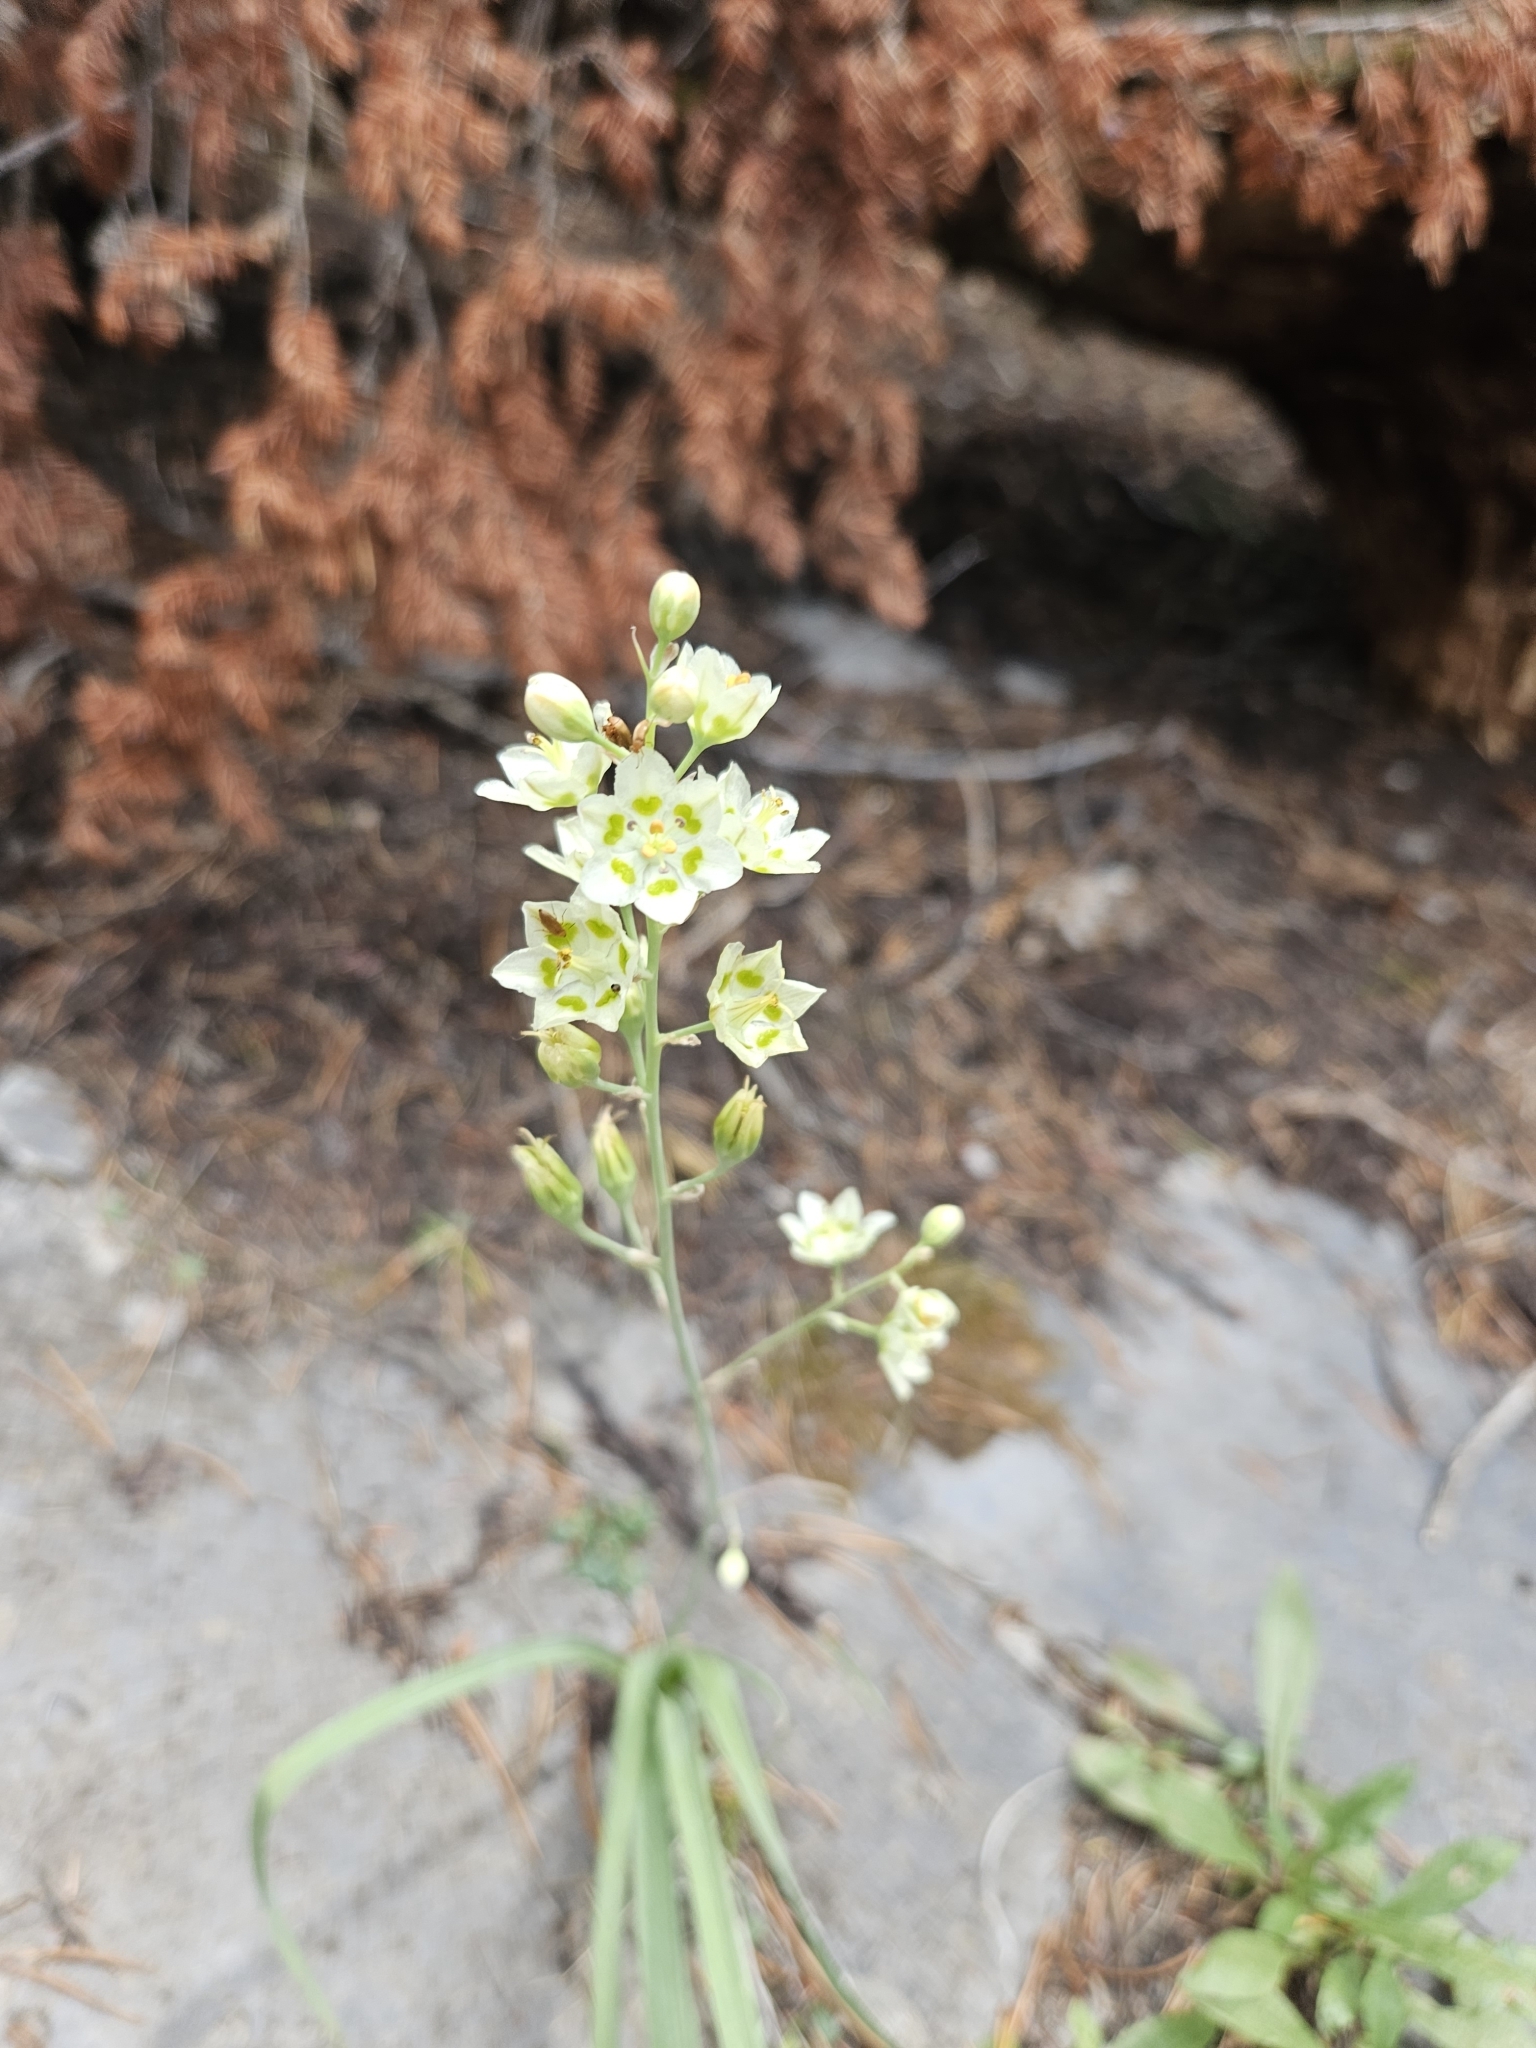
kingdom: Plantae
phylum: Tracheophyta
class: Liliopsida
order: Liliales
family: Melanthiaceae
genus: Anticlea
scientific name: Anticlea elegans
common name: Mountain death camas
